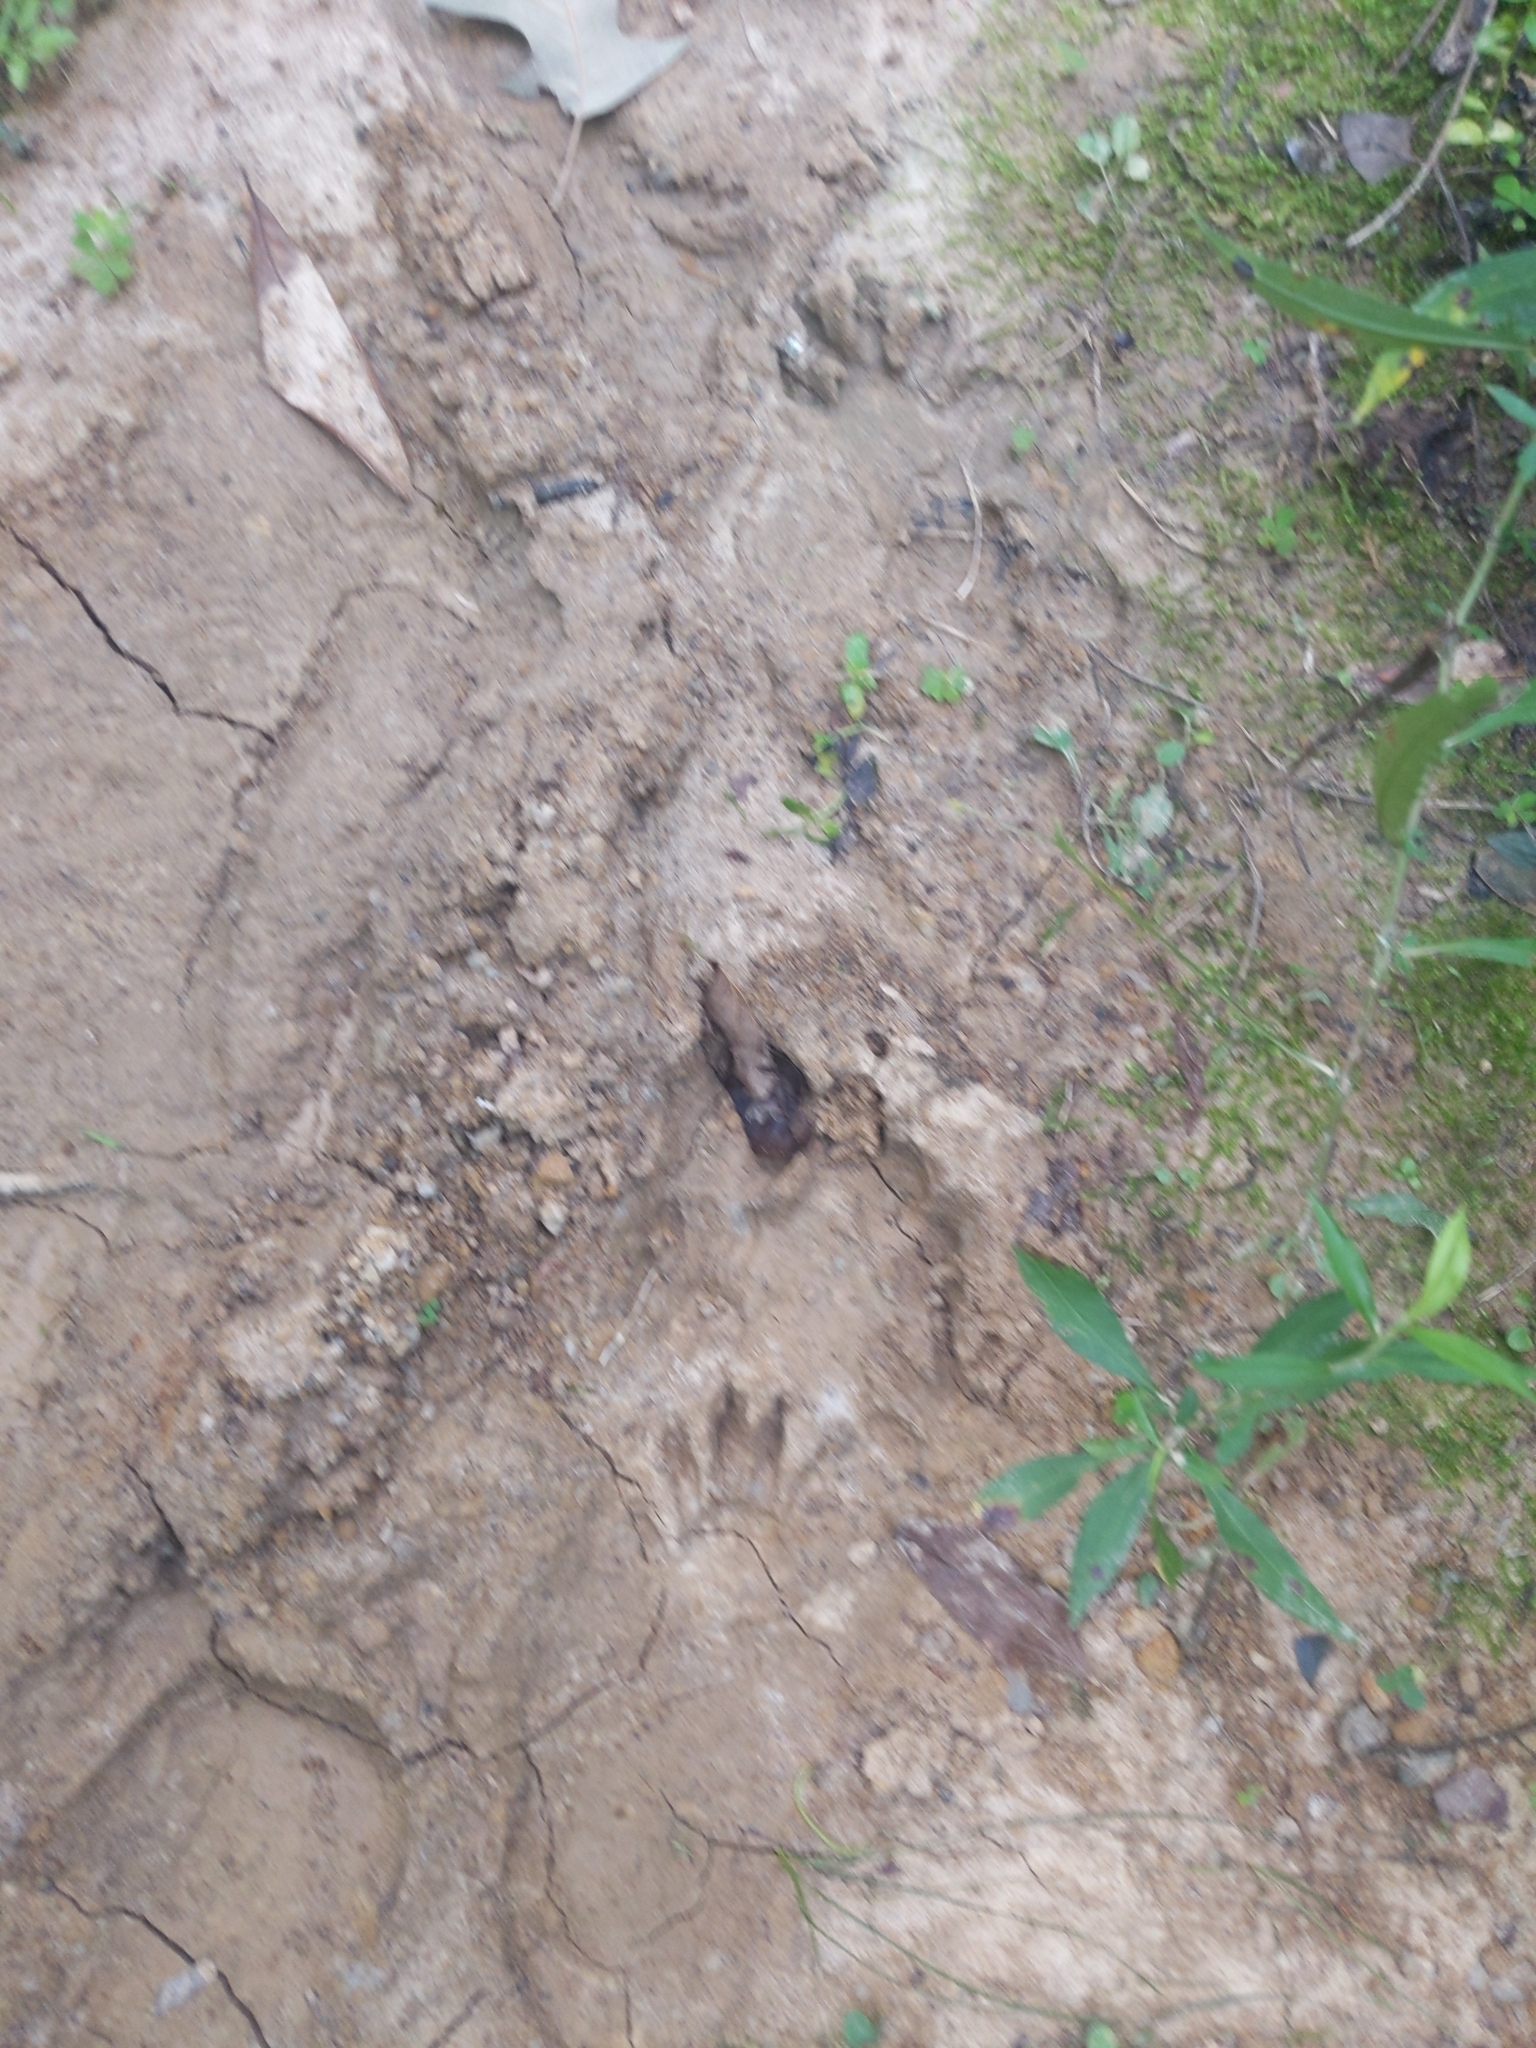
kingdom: Animalia
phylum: Chordata
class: Mammalia
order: Carnivora
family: Procyonidae
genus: Procyon
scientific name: Procyon lotor
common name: Raccoon
